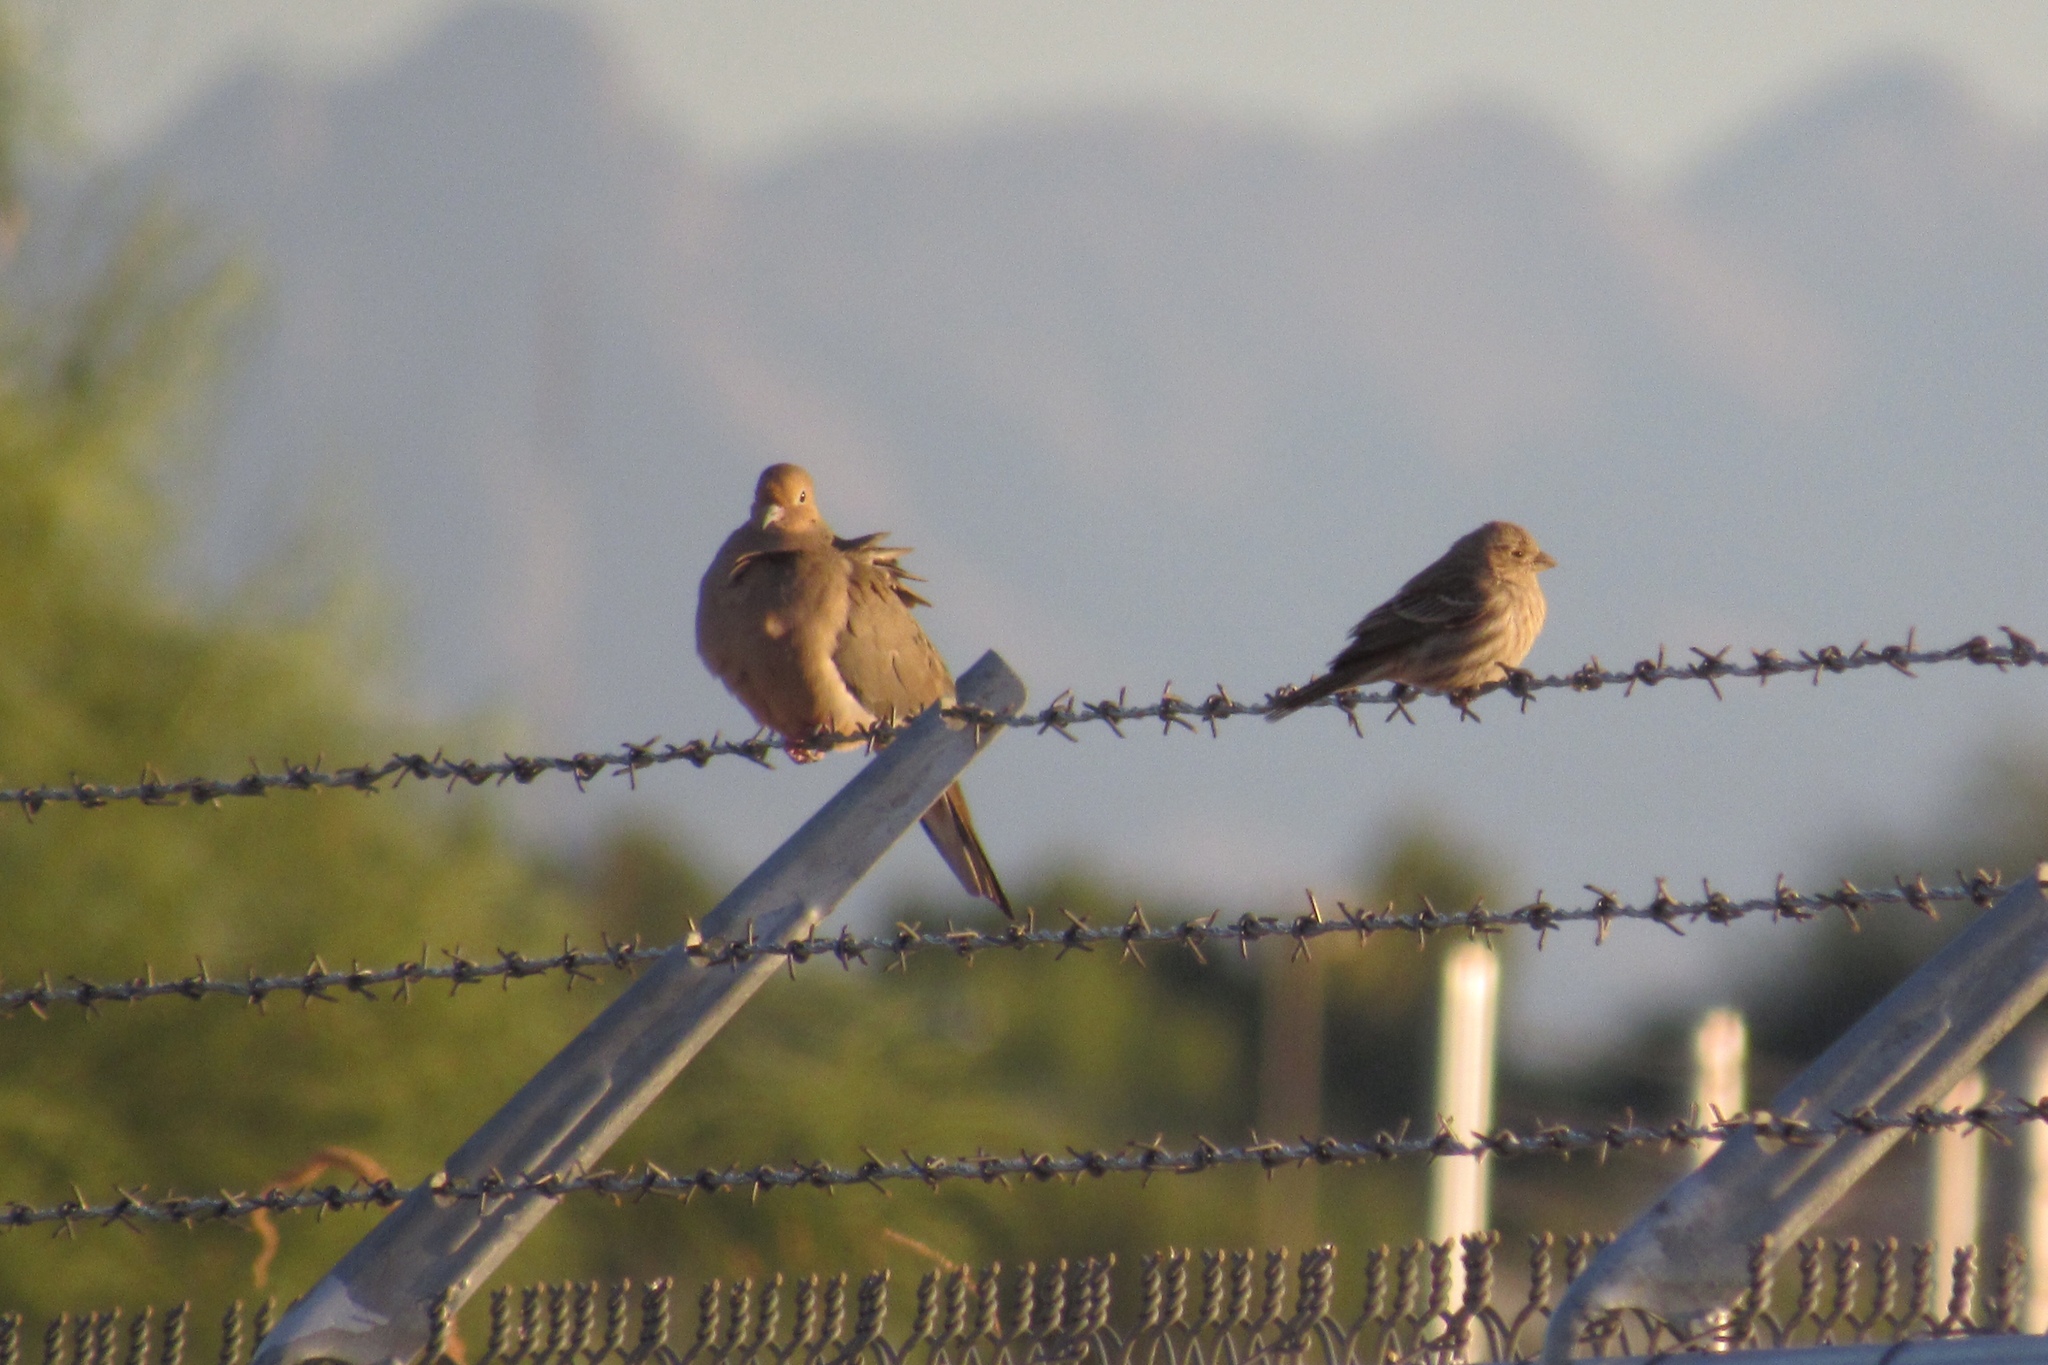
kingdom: Animalia
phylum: Chordata
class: Aves
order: Columbiformes
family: Columbidae
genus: Zenaida
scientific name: Zenaida macroura
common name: Mourning dove
